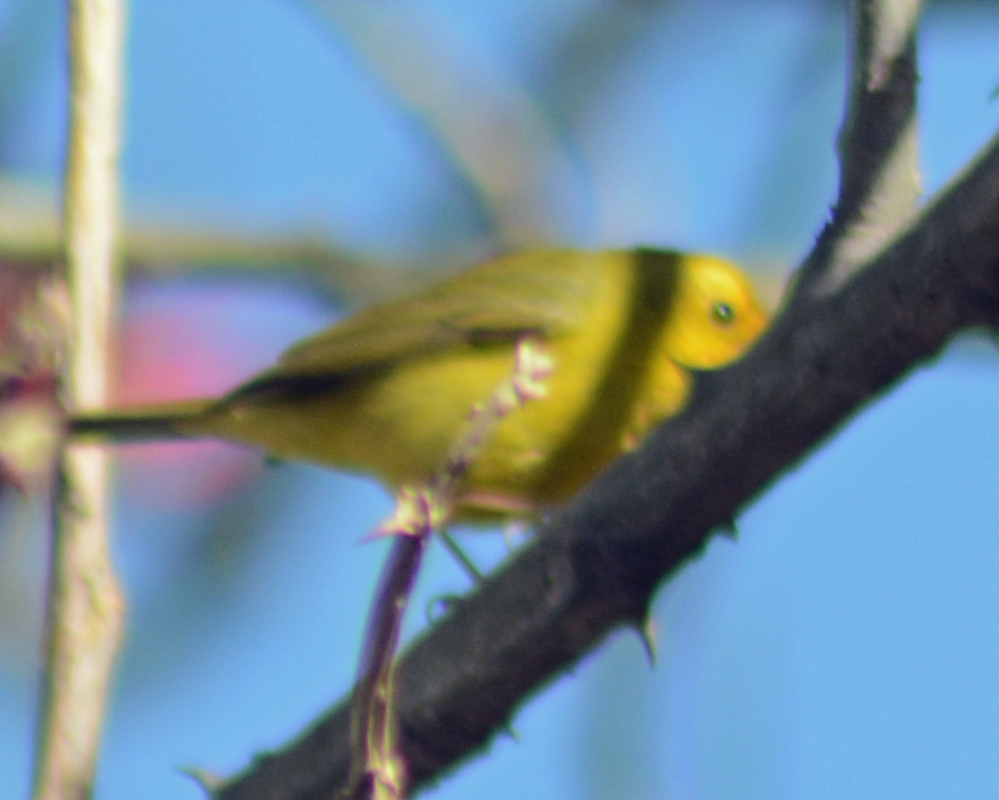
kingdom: Animalia
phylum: Chordata
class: Aves
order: Passeriformes
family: Parulidae
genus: Cardellina
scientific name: Cardellina pusilla
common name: Wilson's warbler
